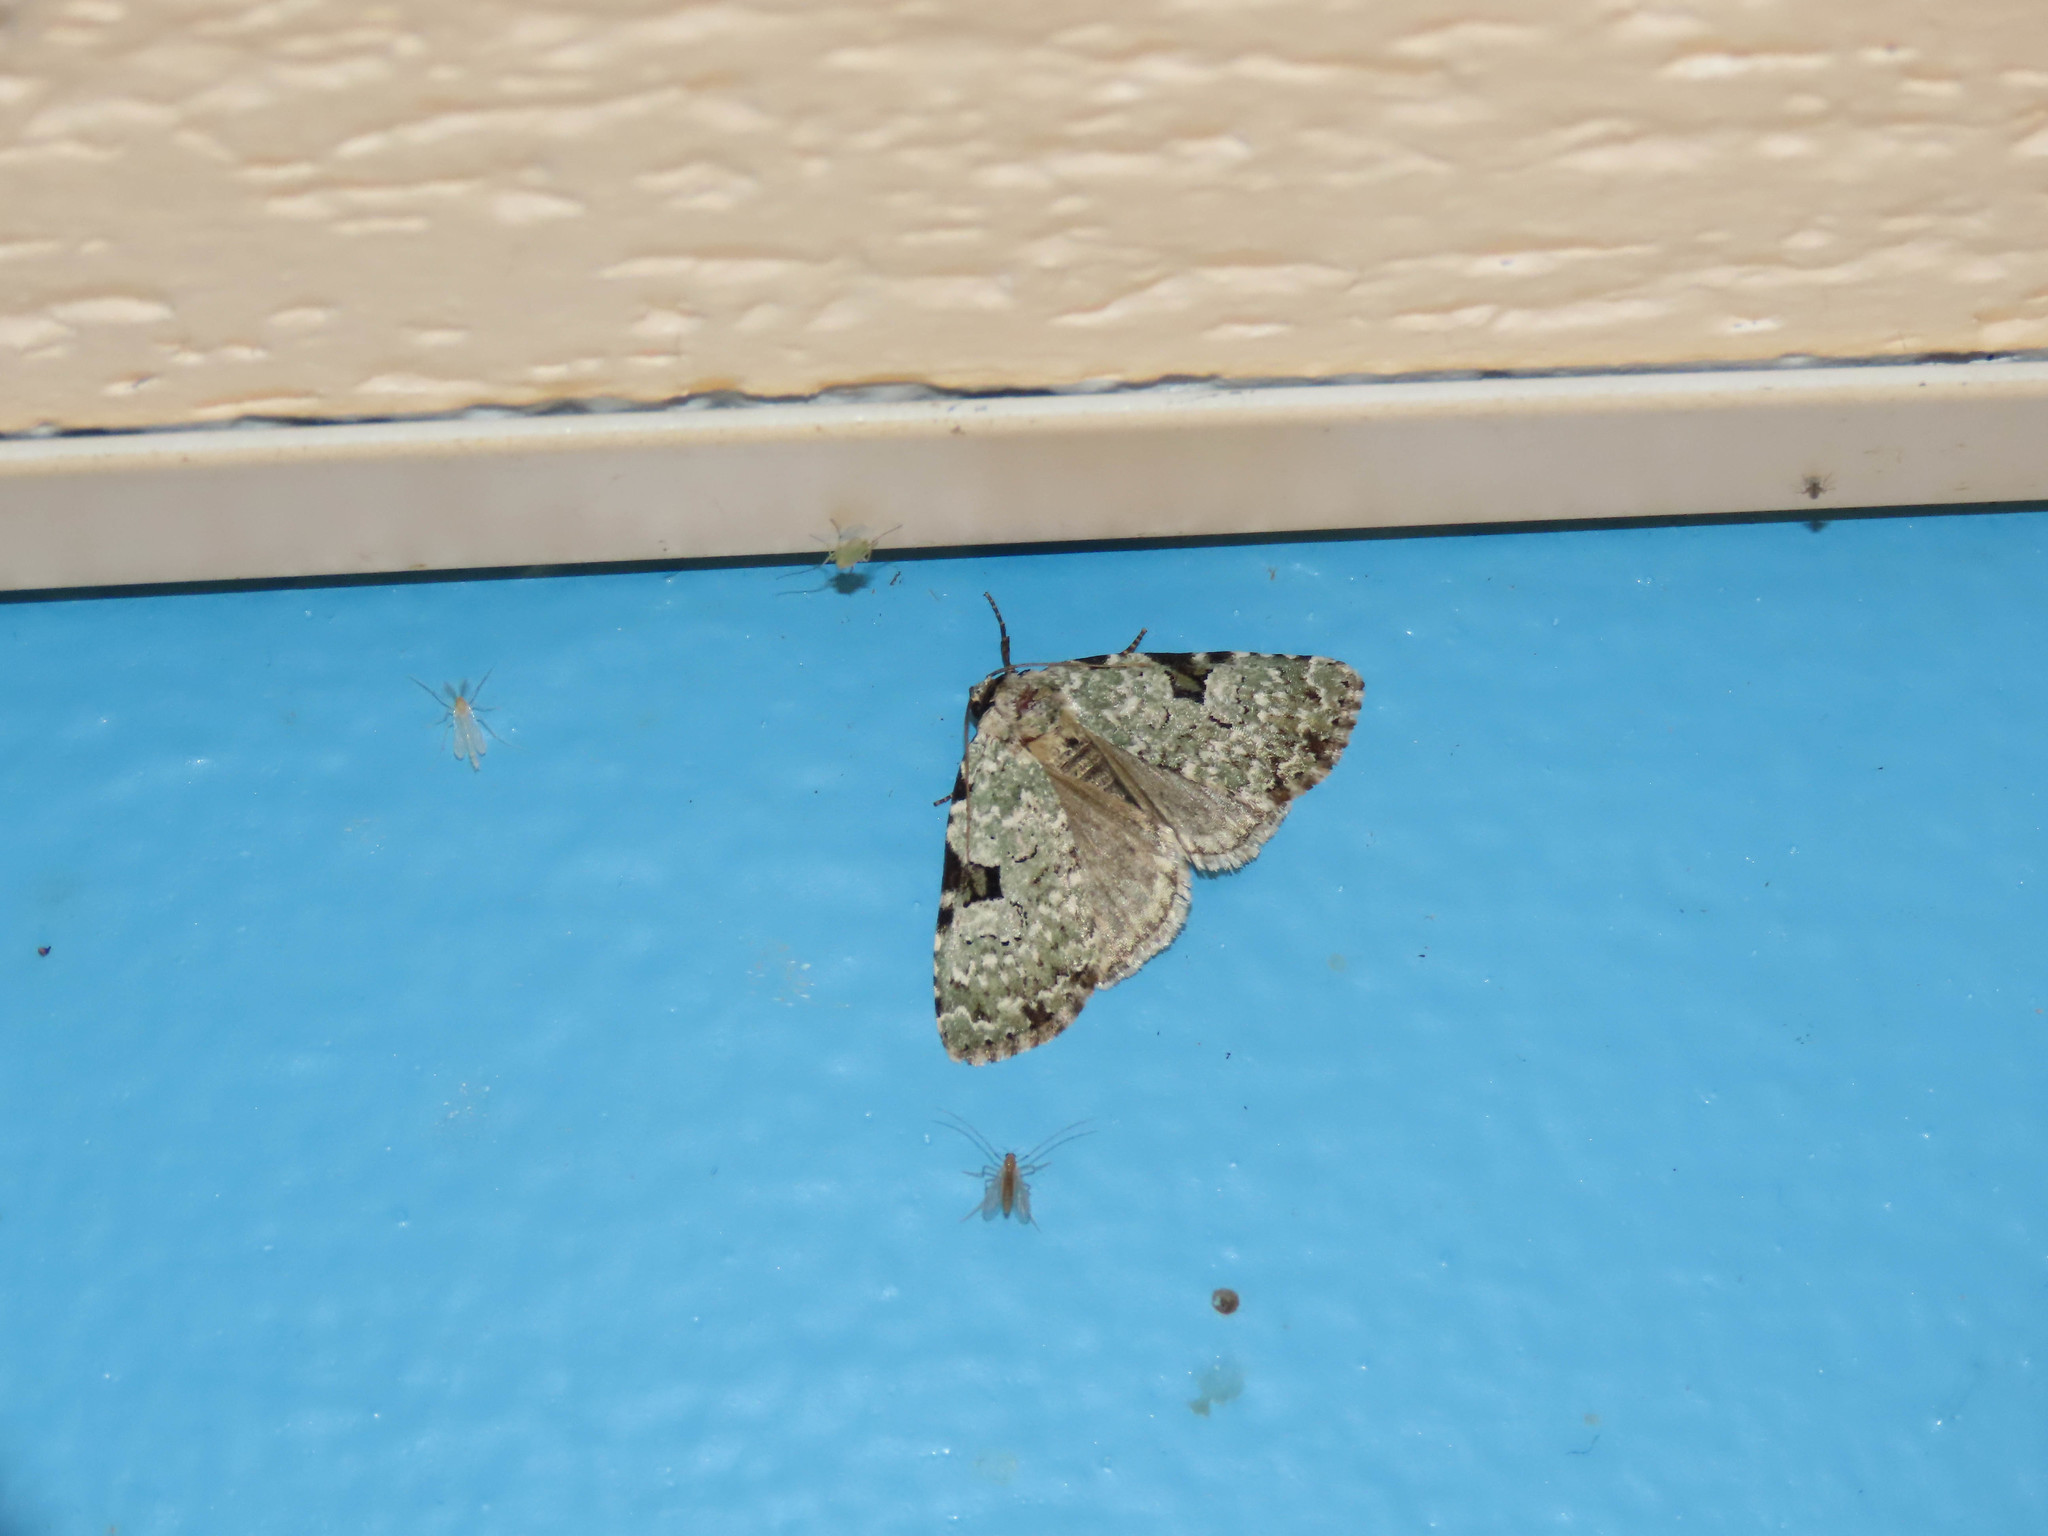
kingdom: Animalia
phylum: Arthropoda
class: Insecta
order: Lepidoptera
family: Noctuidae
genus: Leuconycta
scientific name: Leuconycta diphteroides
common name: Green leuconycta moth
